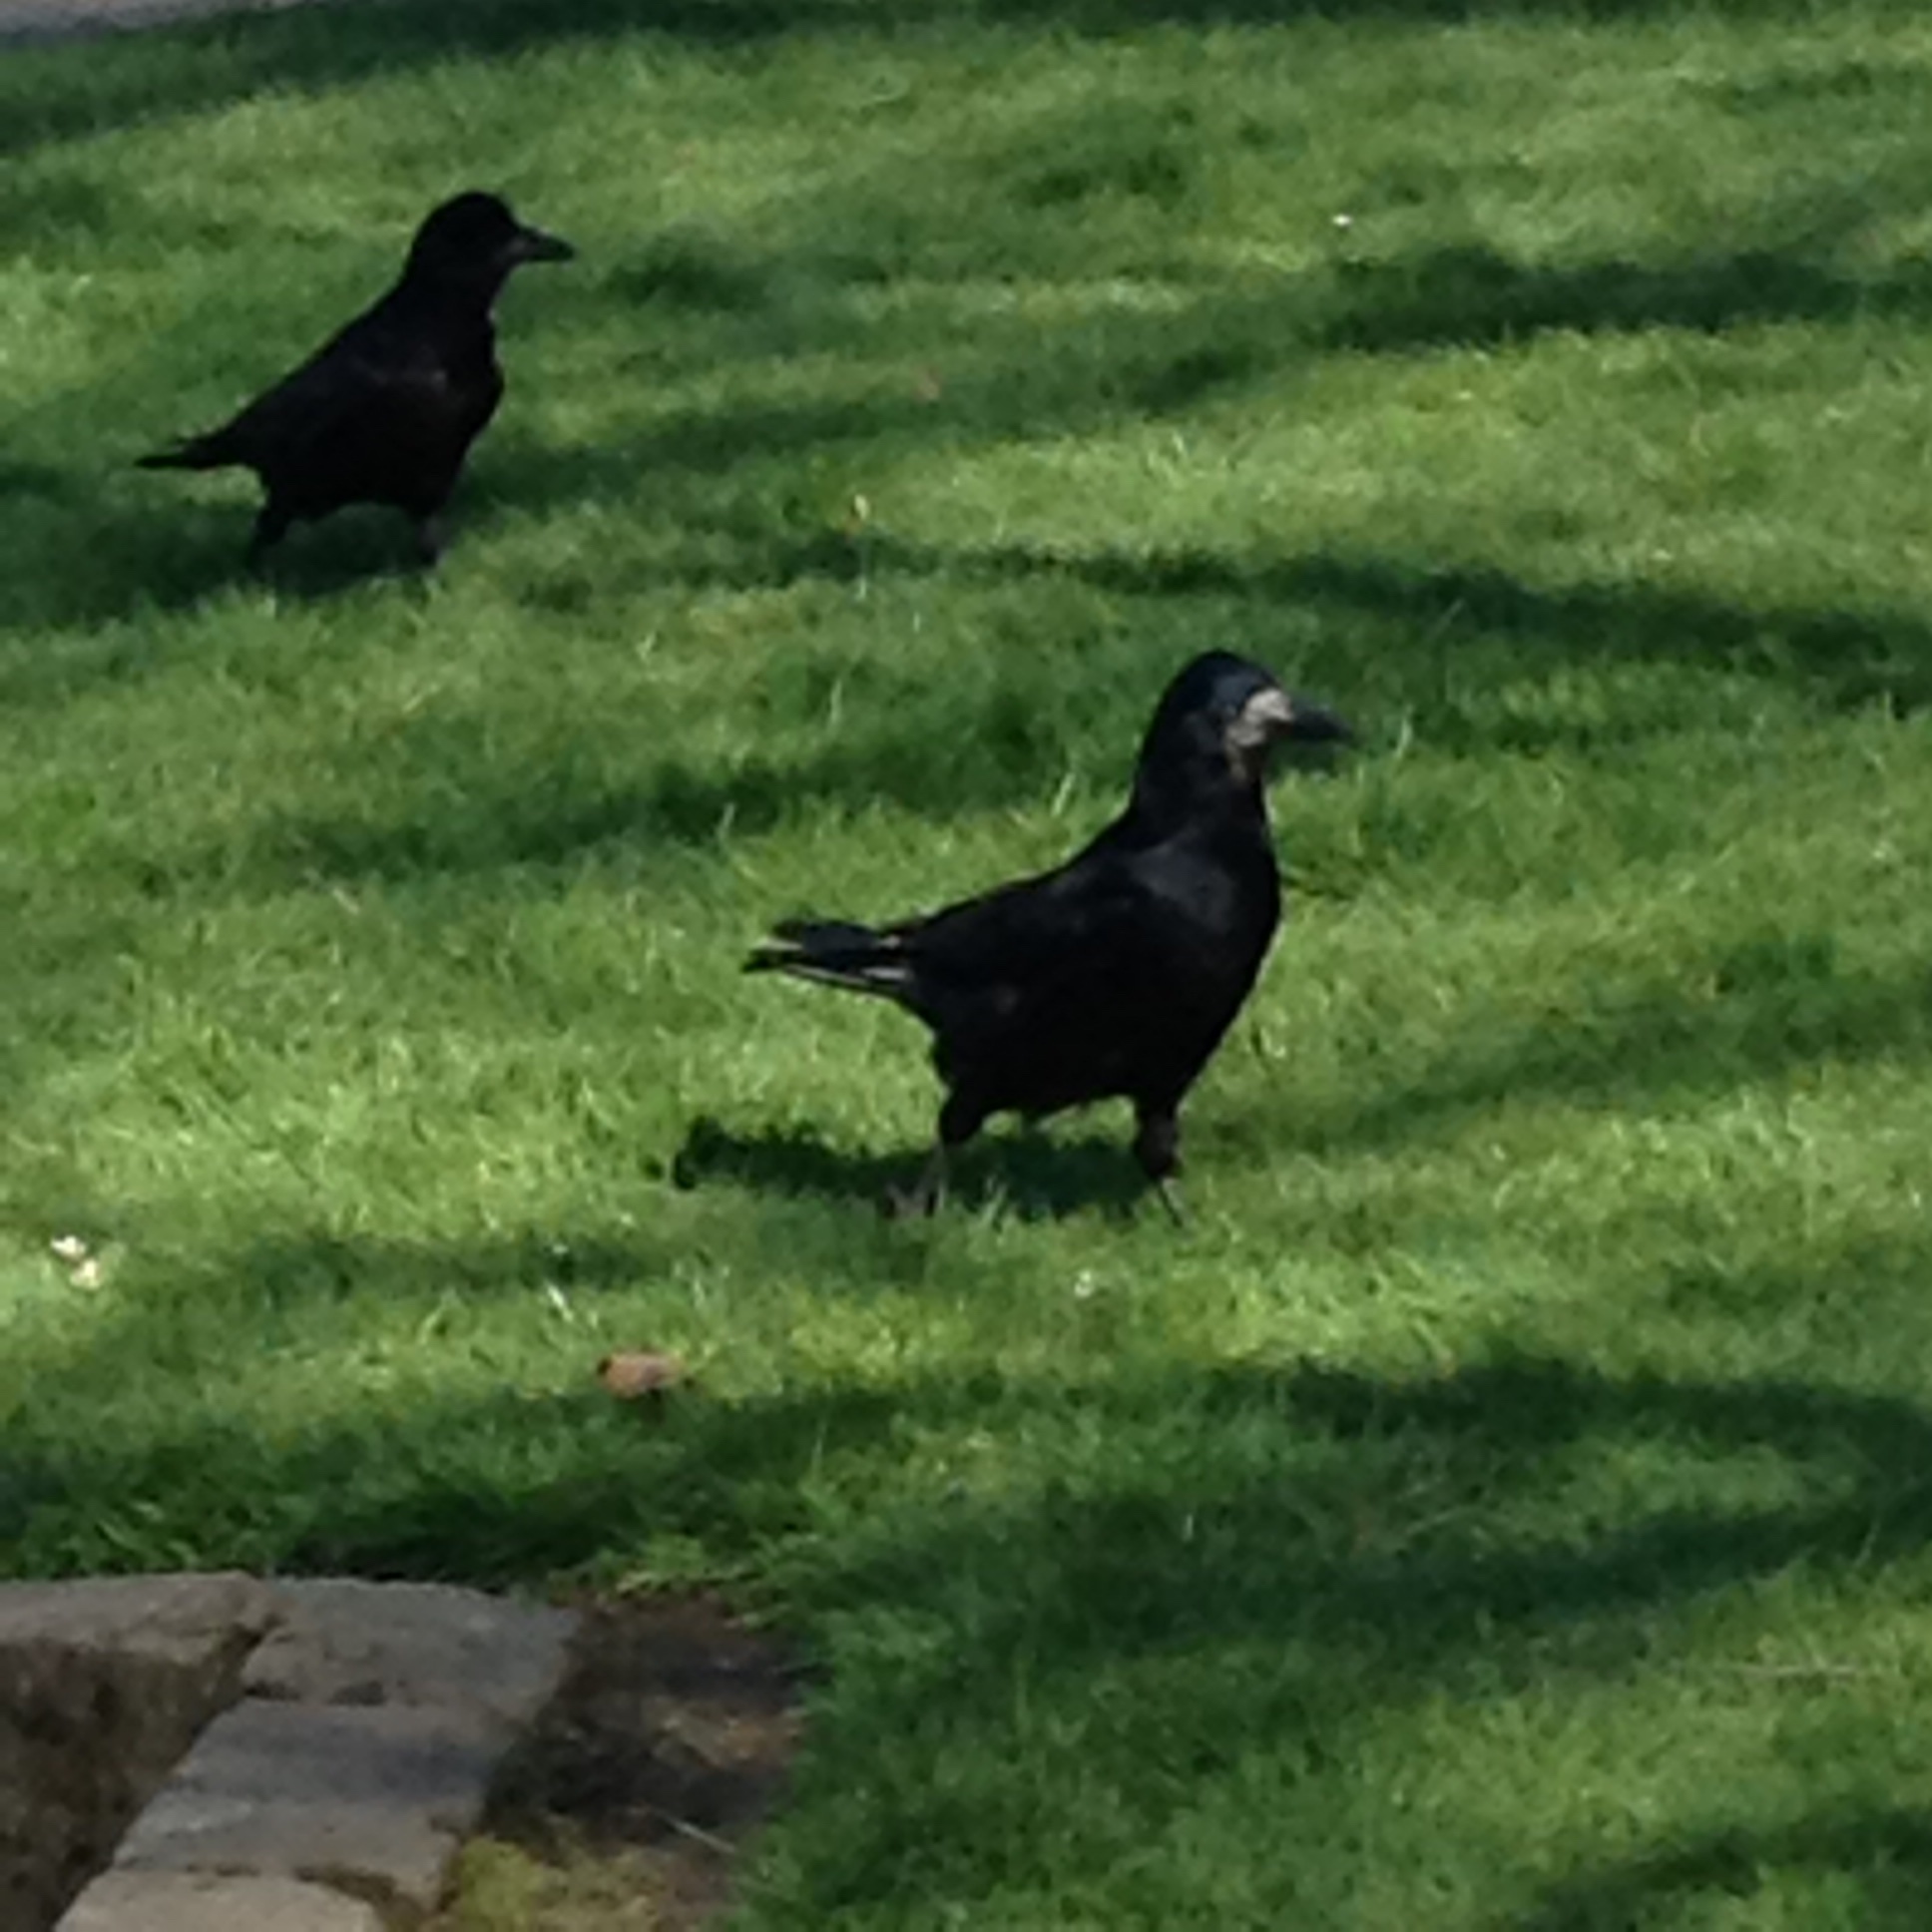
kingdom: Animalia
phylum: Chordata
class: Aves
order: Passeriformes
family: Corvidae
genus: Corvus
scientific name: Corvus frugilegus
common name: Rook
